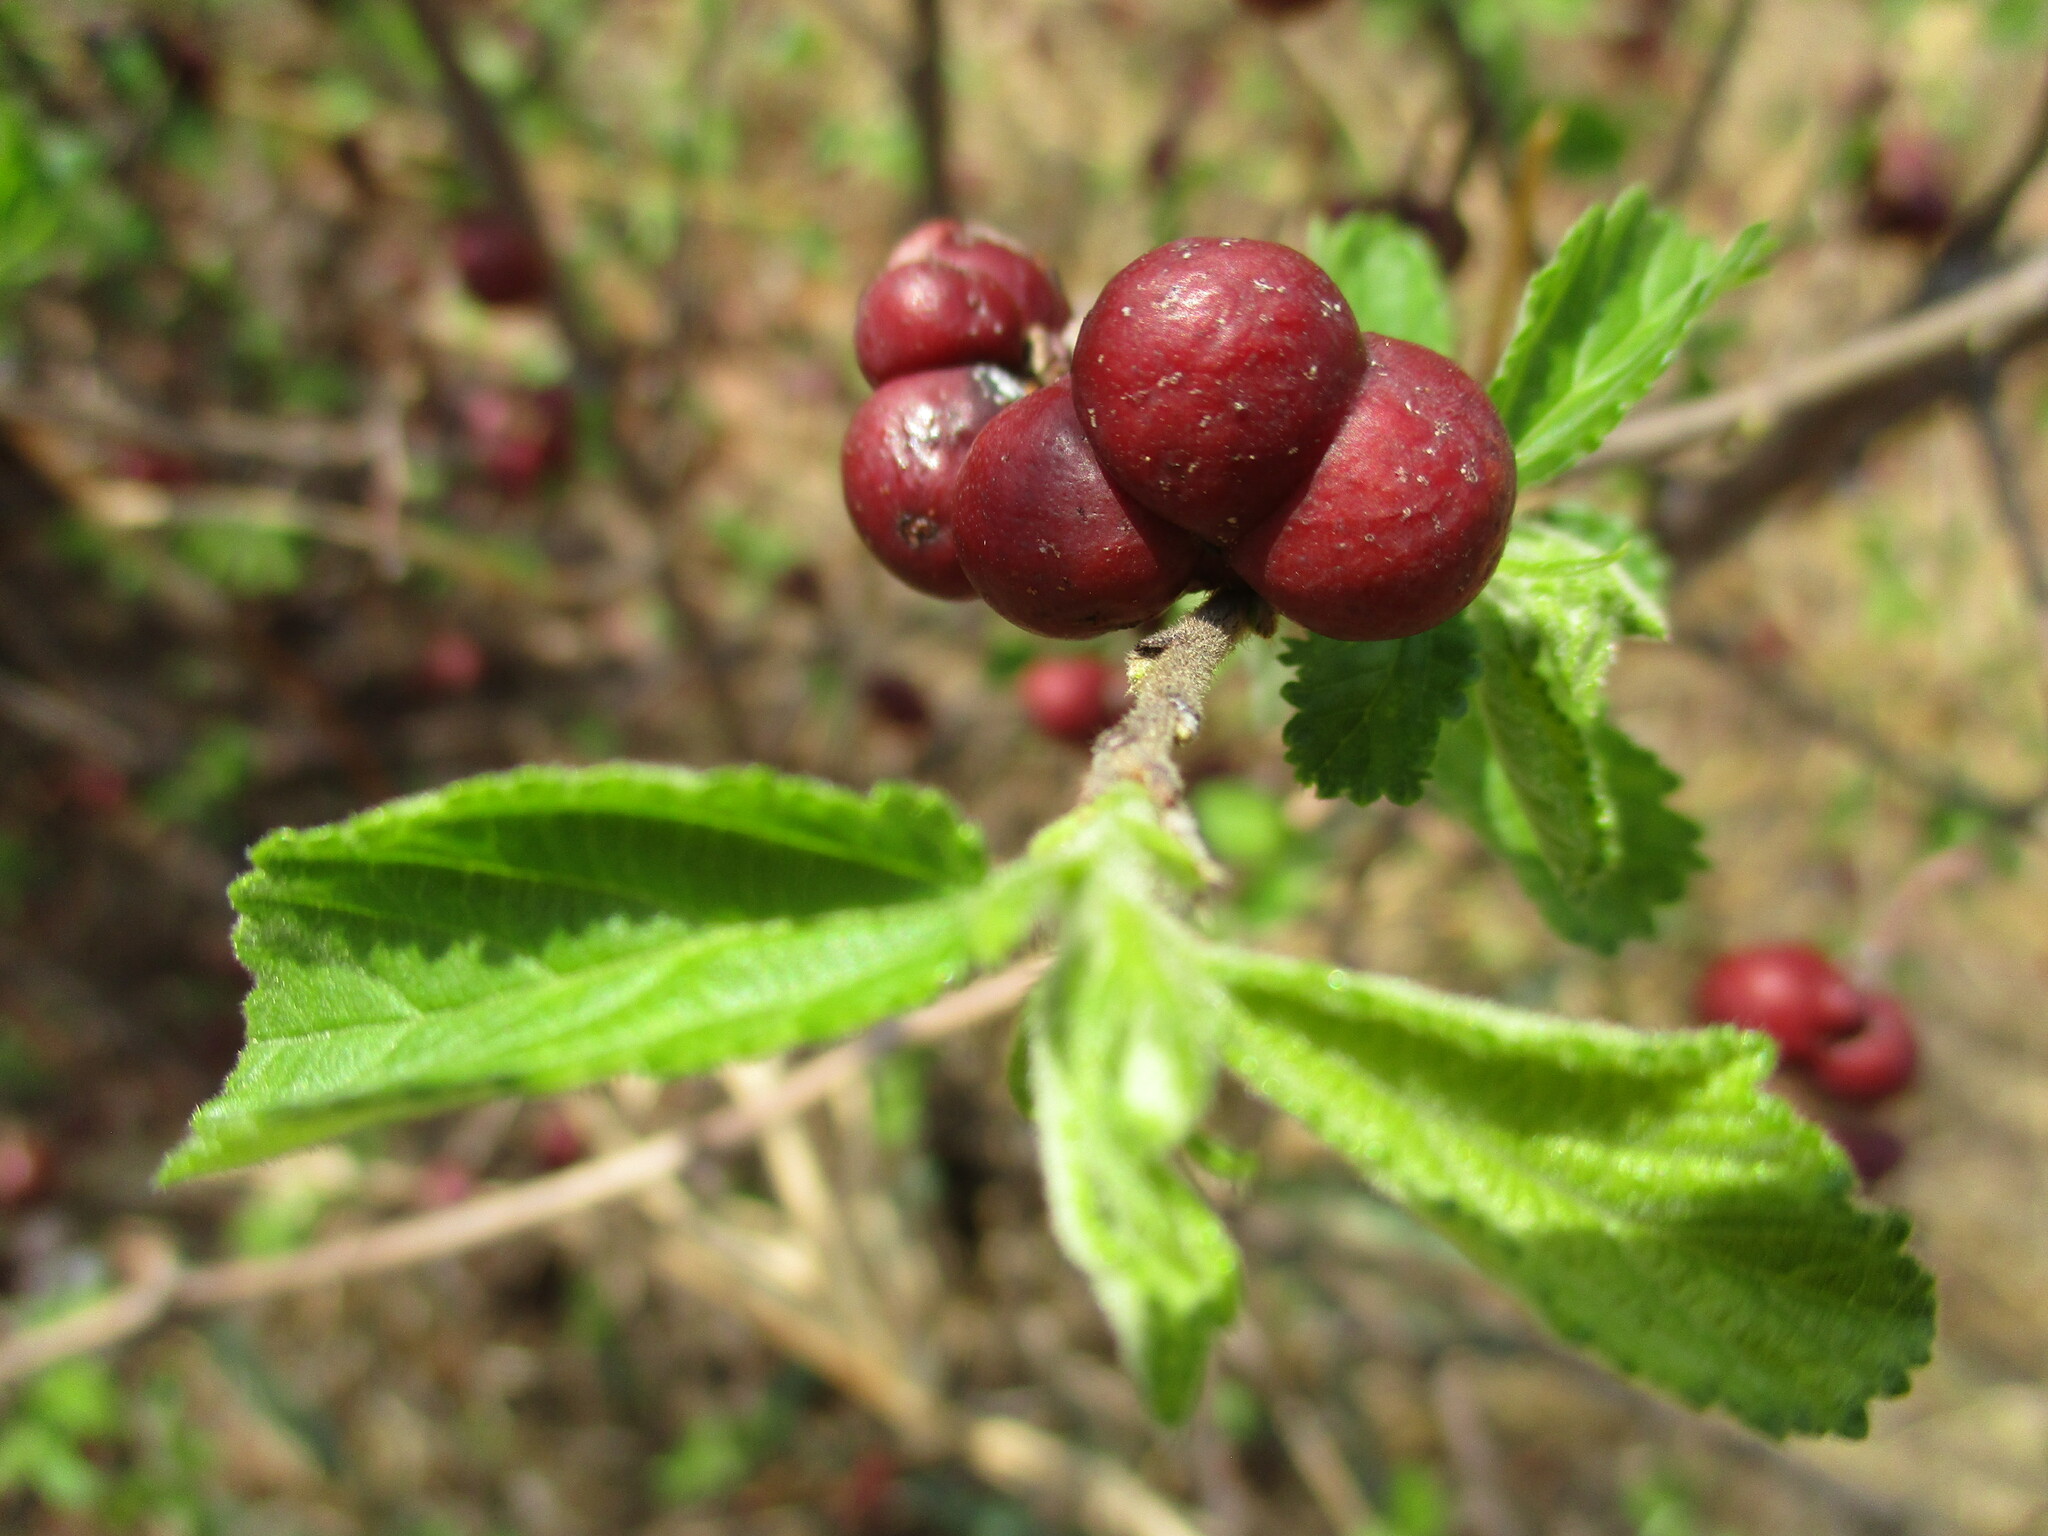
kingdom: Plantae
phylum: Tracheophyta
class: Magnoliopsida
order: Malvales
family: Malvaceae
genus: Grewia
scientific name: Grewia avellana
